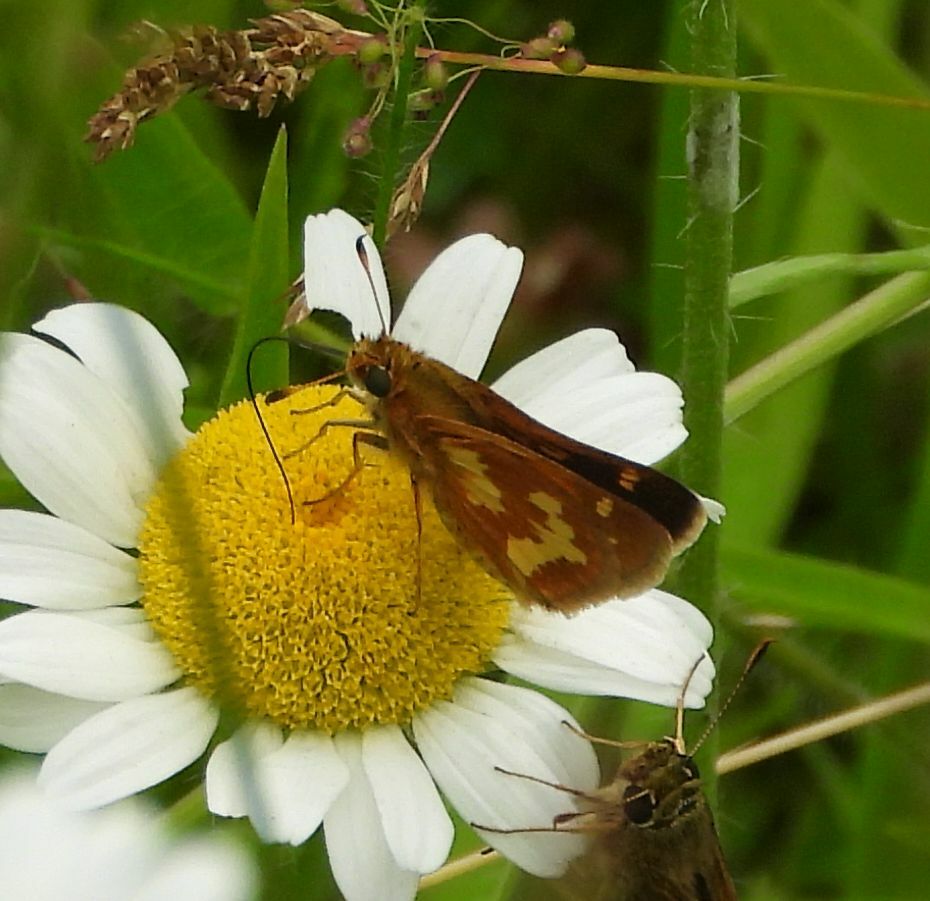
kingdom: Animalia
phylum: Arthropoda
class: Insecta
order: Lepidoptera
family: Hesperiidae
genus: Polites
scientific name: Polites coras
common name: Peck's skipper
